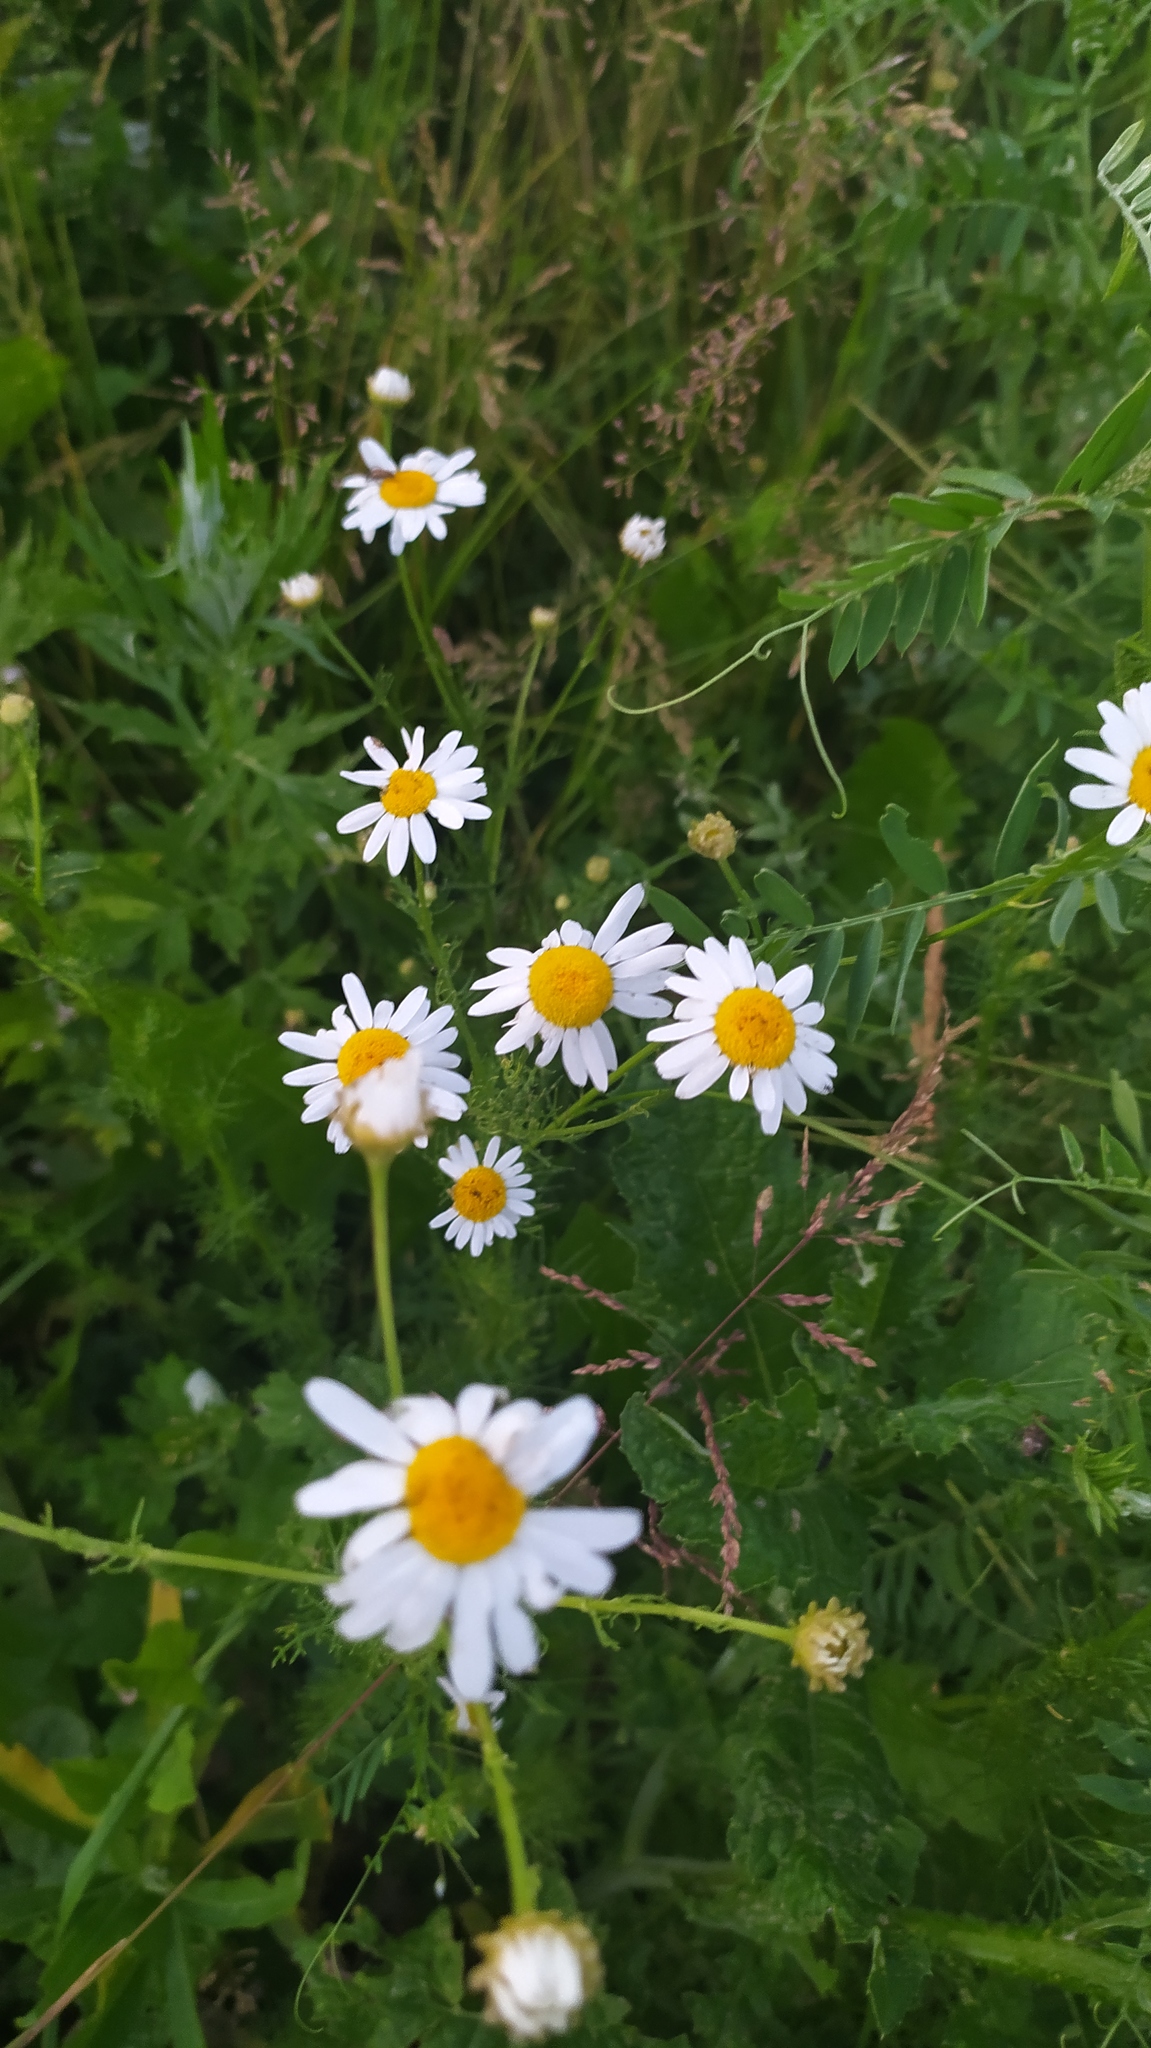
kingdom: Plantae
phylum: Tracheophyta
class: Magnoliopsida
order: Asterales
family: Asteraceae
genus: Tripleurospermum
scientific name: Tripleurospermum inodorum
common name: Scentless mayweed
